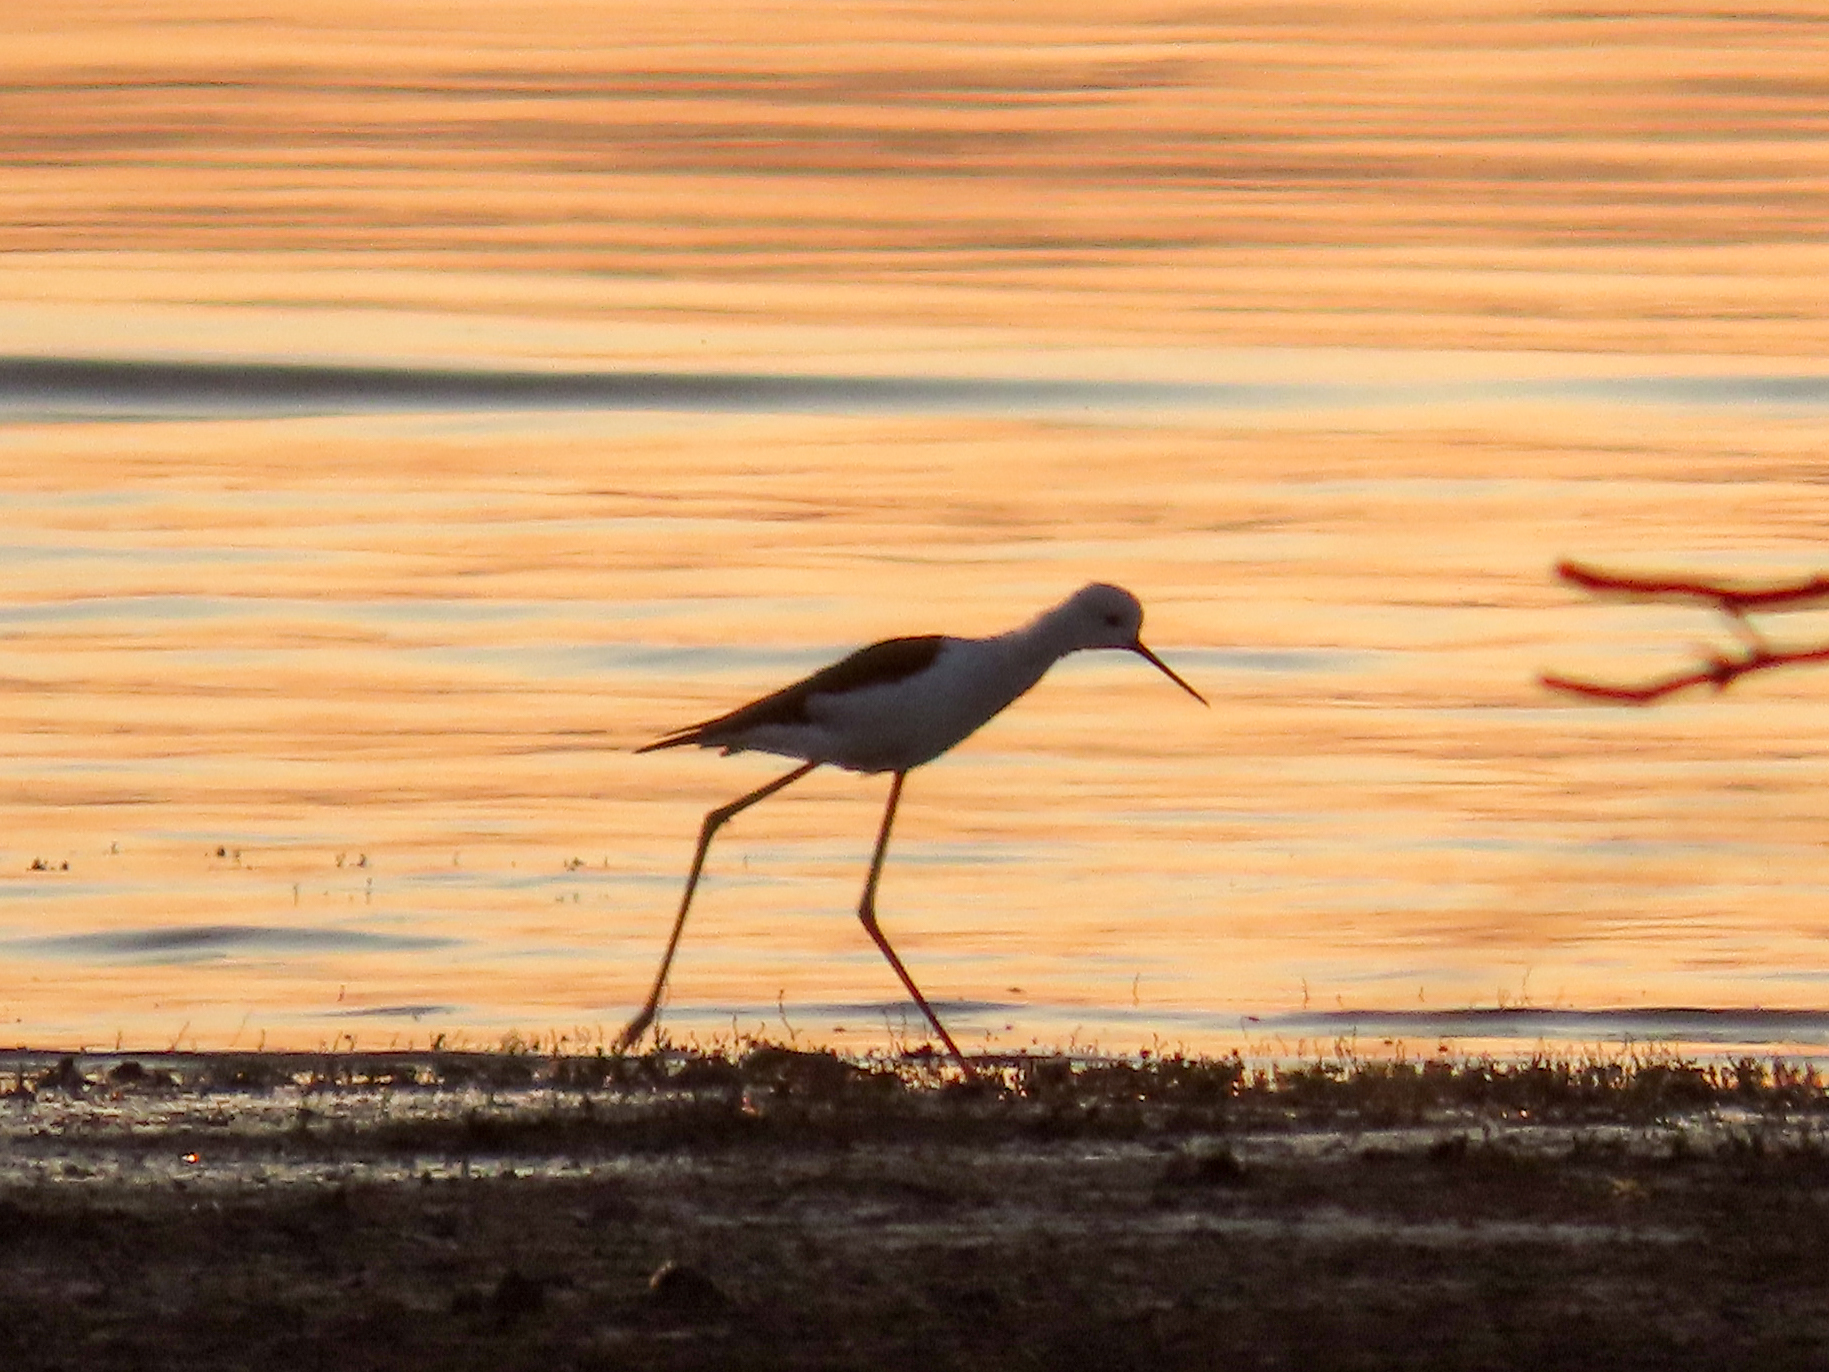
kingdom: Animalia
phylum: Chordata
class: Aves
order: Charadriiformes
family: Recurvirostridae
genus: Himantopus
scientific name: Himantopus himantopus
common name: Black-winged stilt
